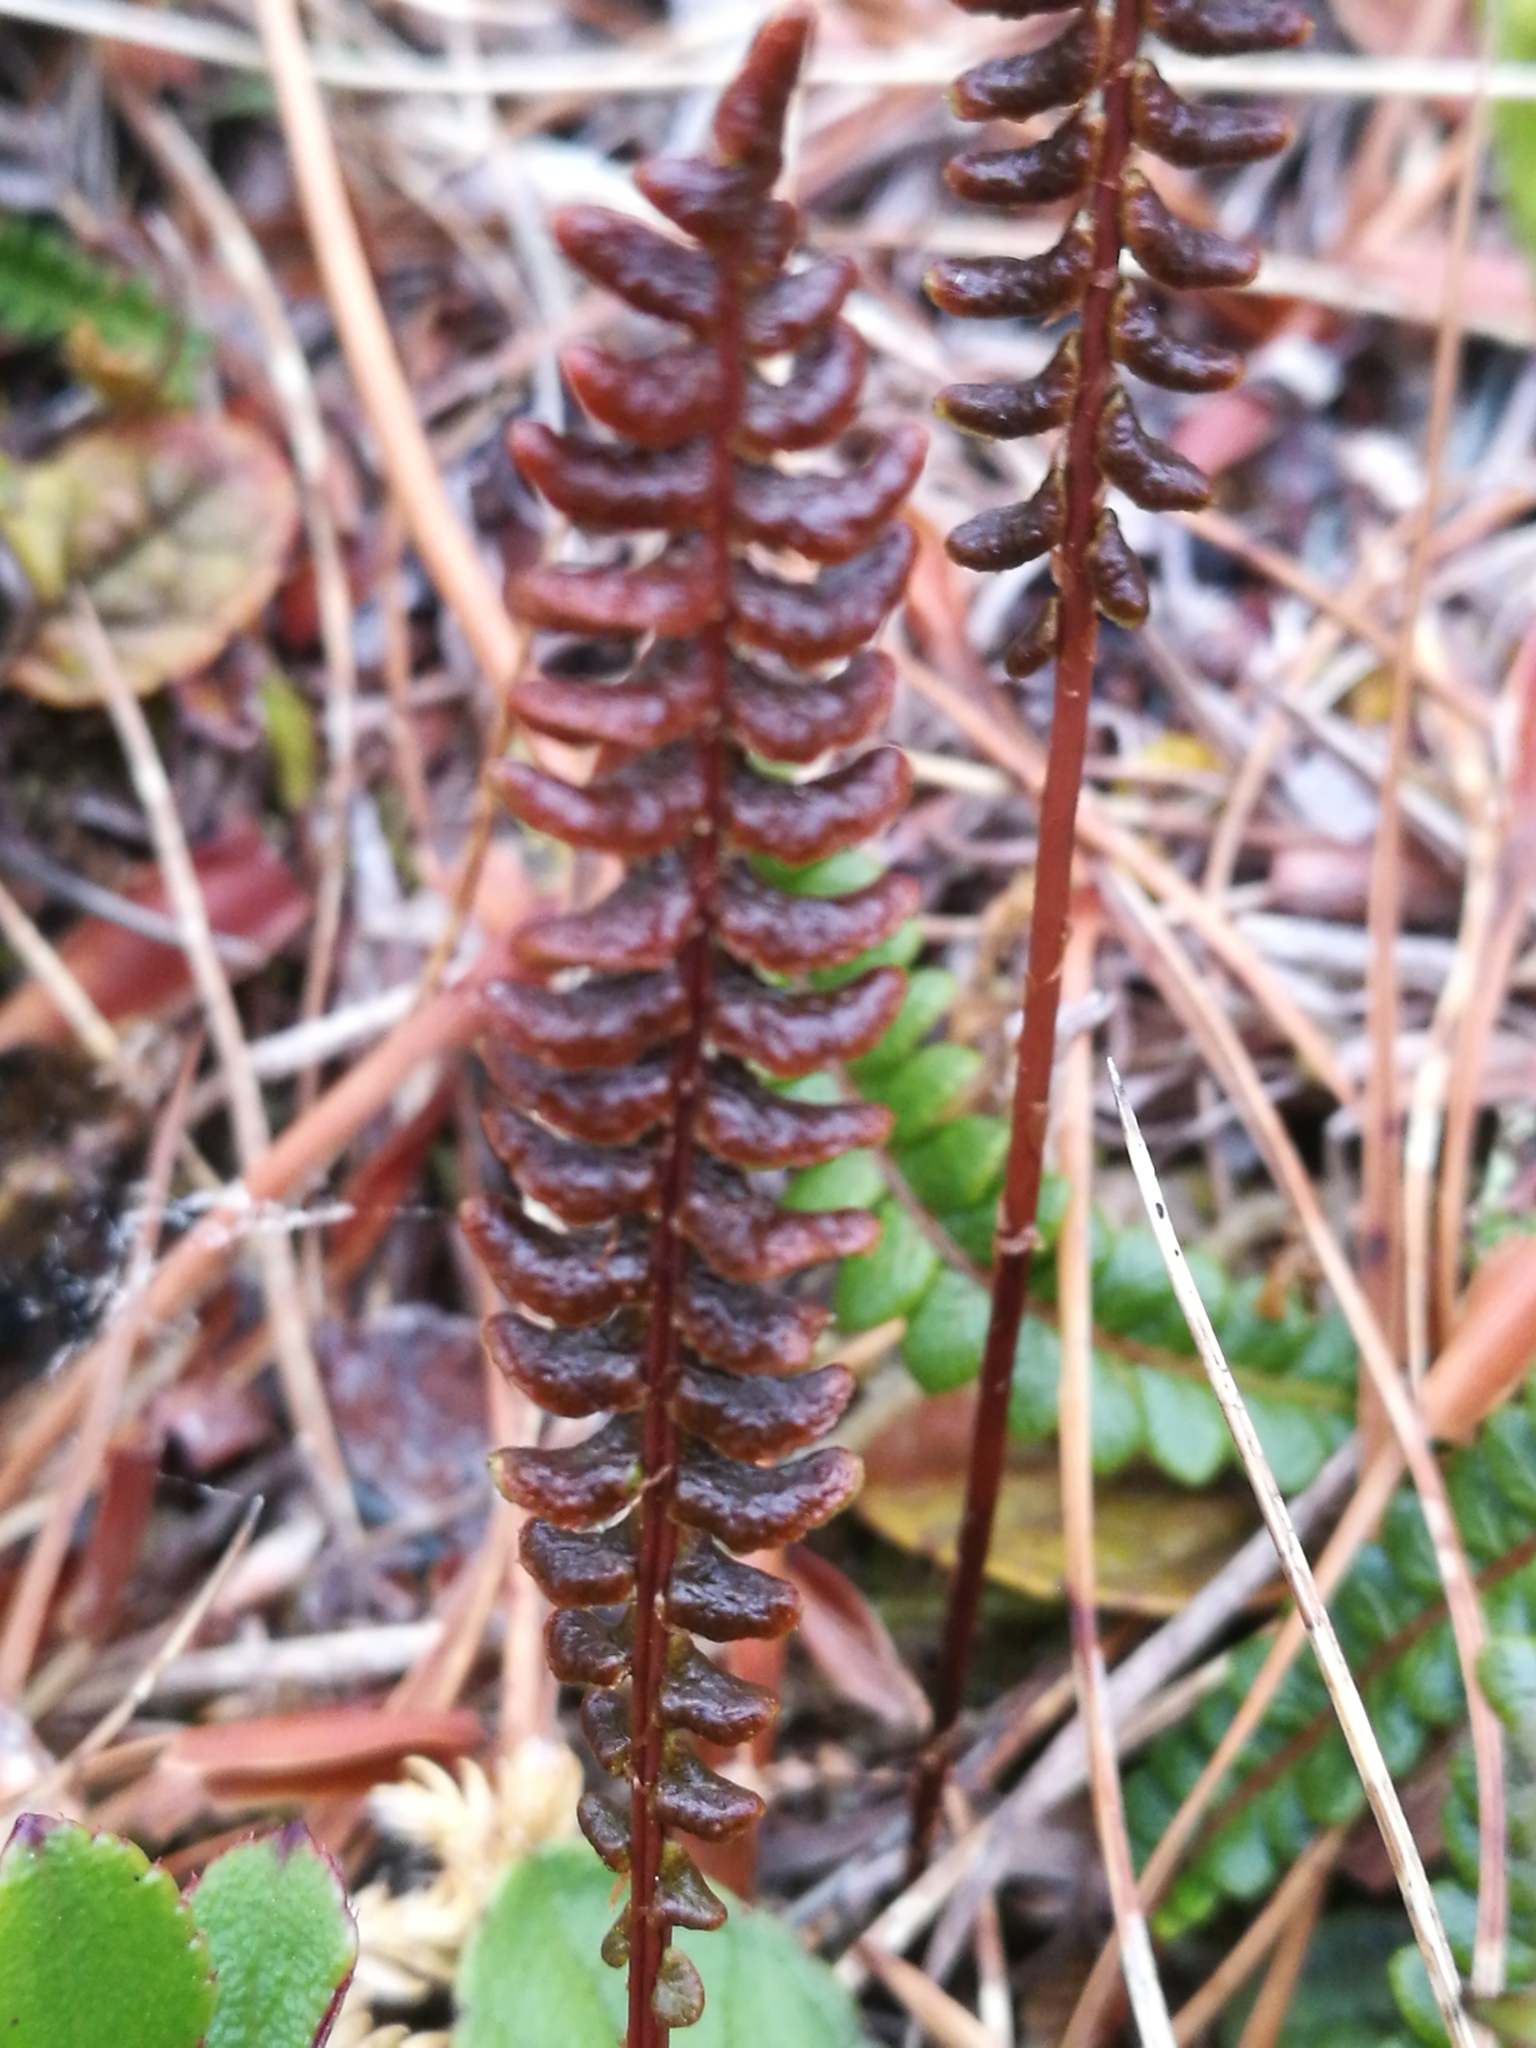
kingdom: Plantae
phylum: Tracheophyta
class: Polypodiopsida
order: Polypodiales
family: Blechnaceae
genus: Austroblechnum
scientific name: Austroblechnum penna-marina
